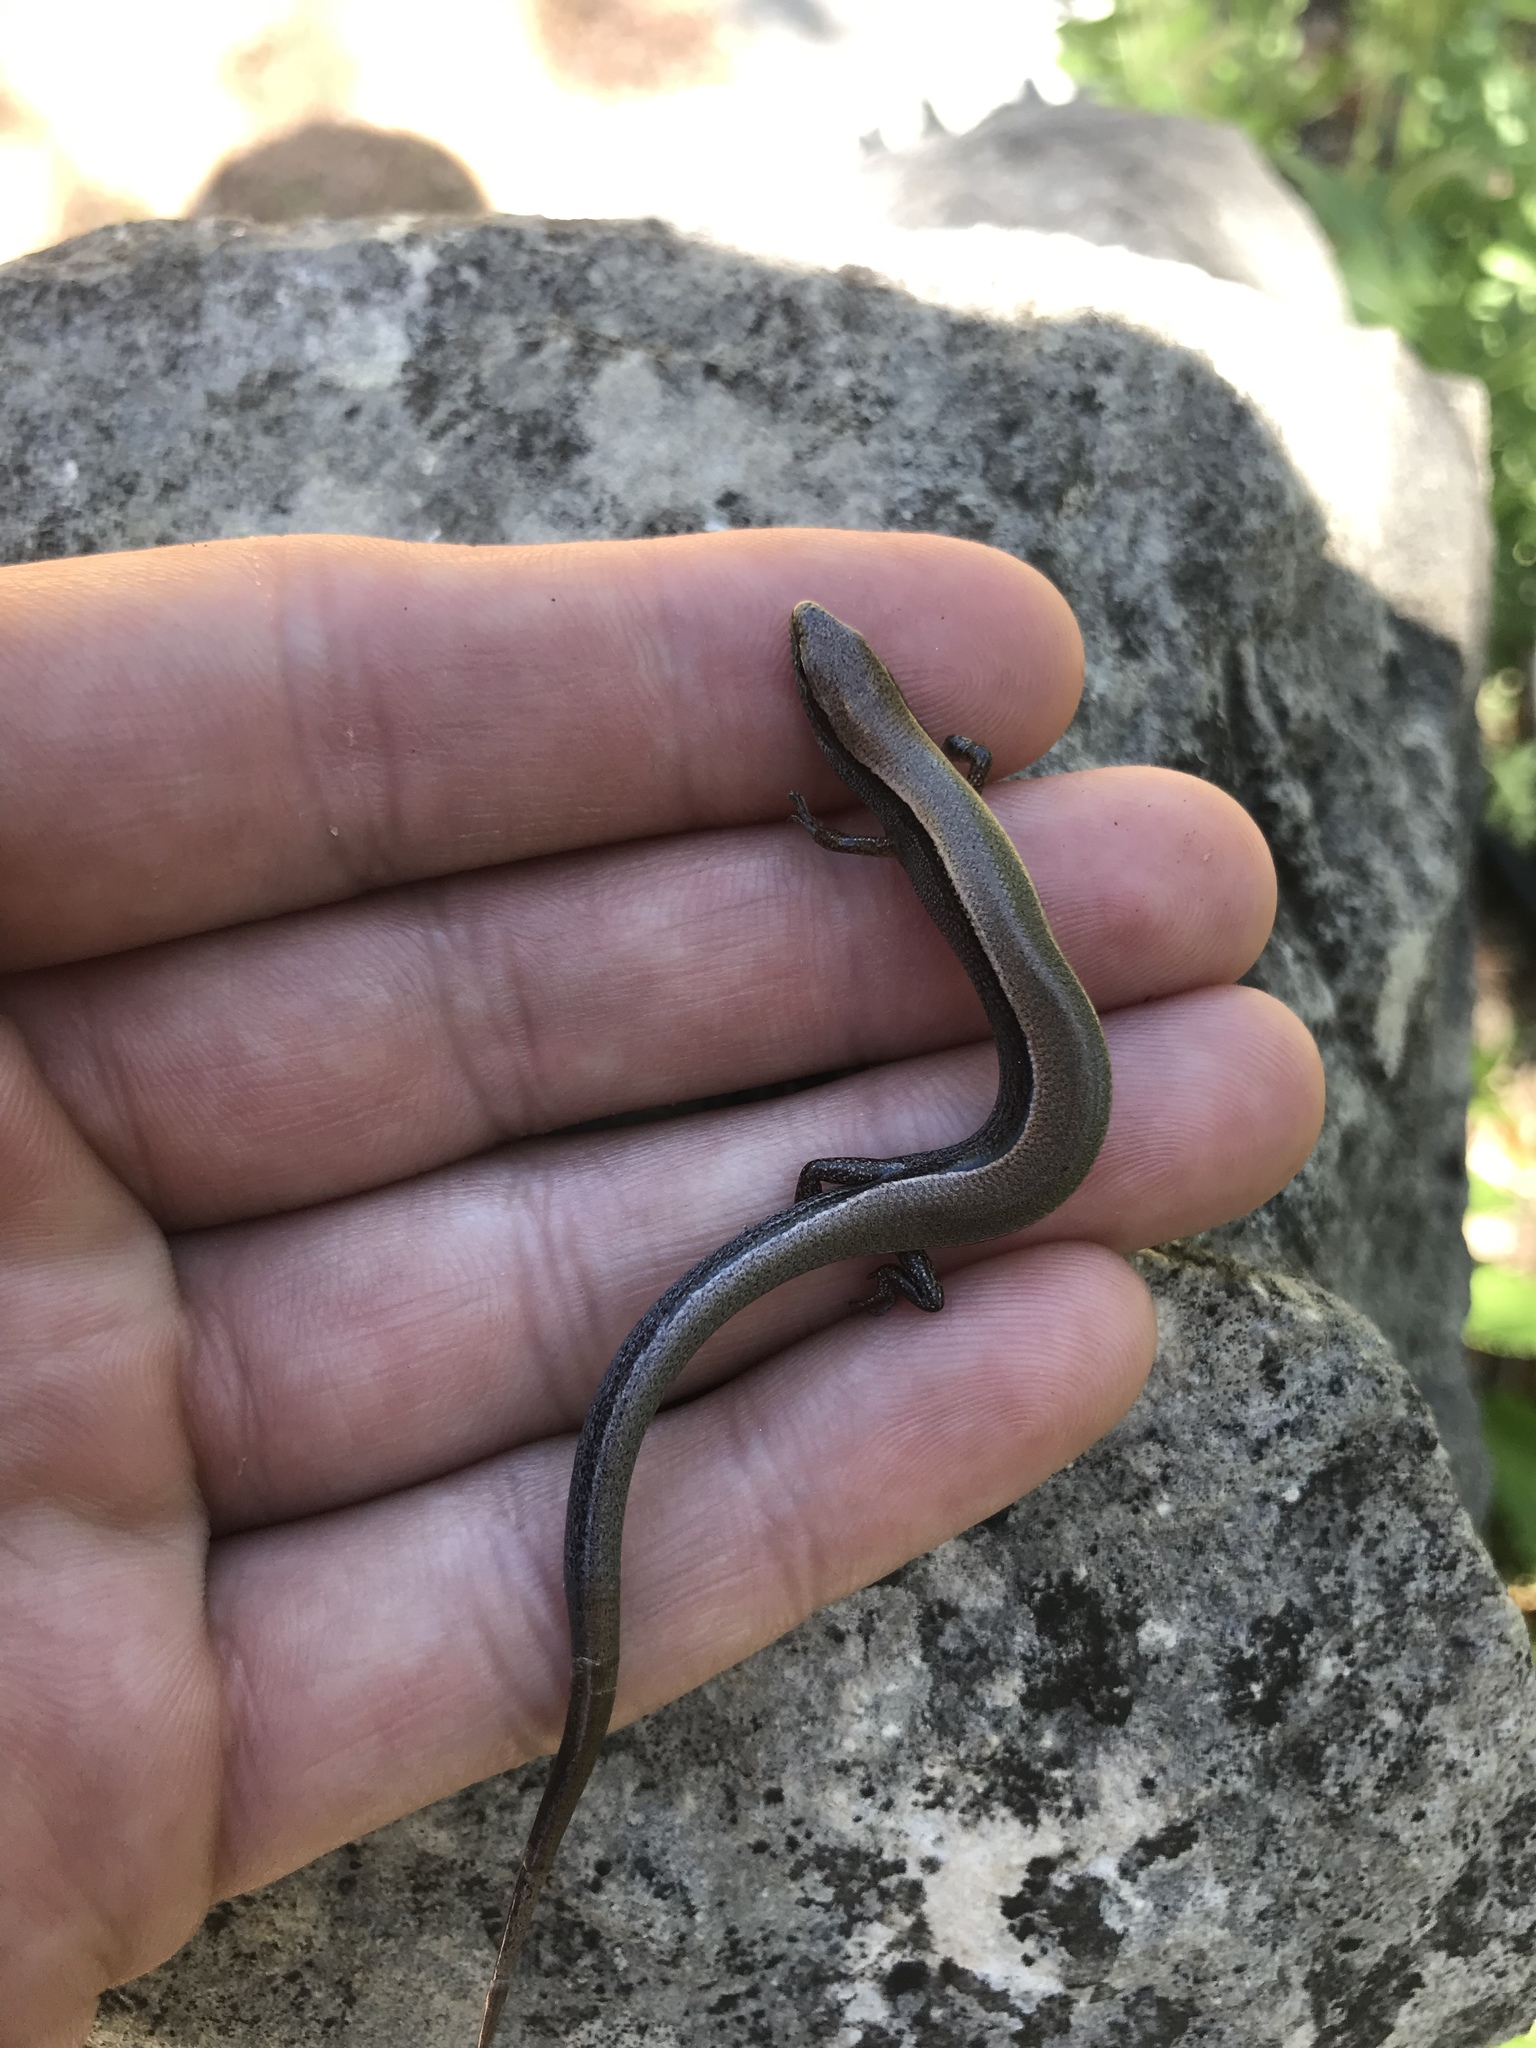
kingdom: Animalia
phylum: Chordata
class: Squamata
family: Scincidae
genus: Scincella
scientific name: Scincella lateralis
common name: Ground skink
